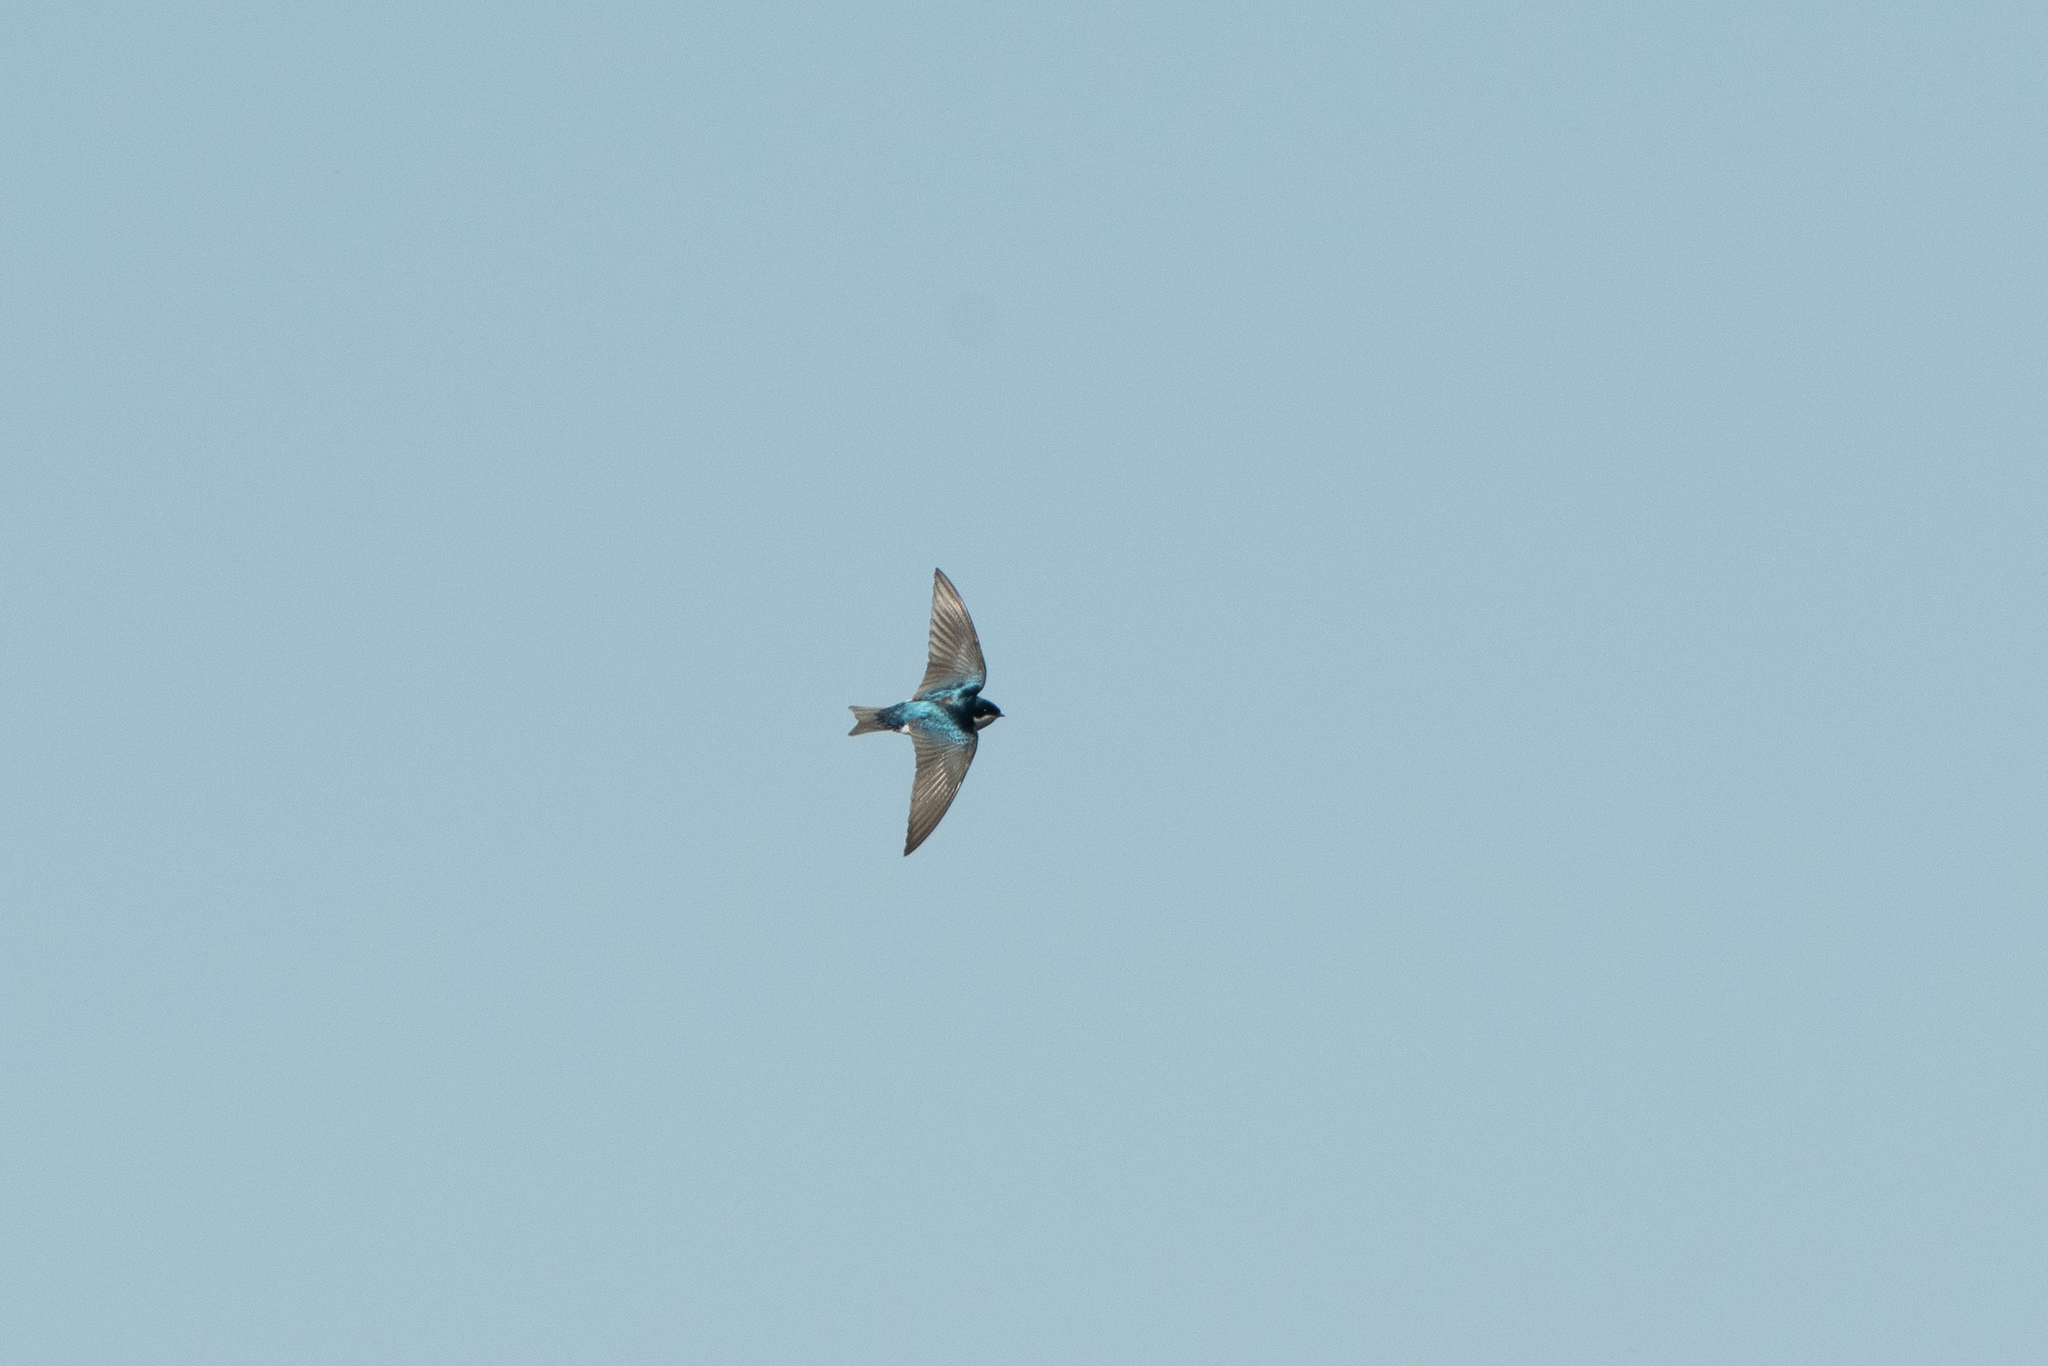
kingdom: Animalia
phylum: Chordata
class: Aves
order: Passeriformes
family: Hirundinidae
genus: Tachycineta
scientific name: Tachycineta bicolor
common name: Tree swallow
